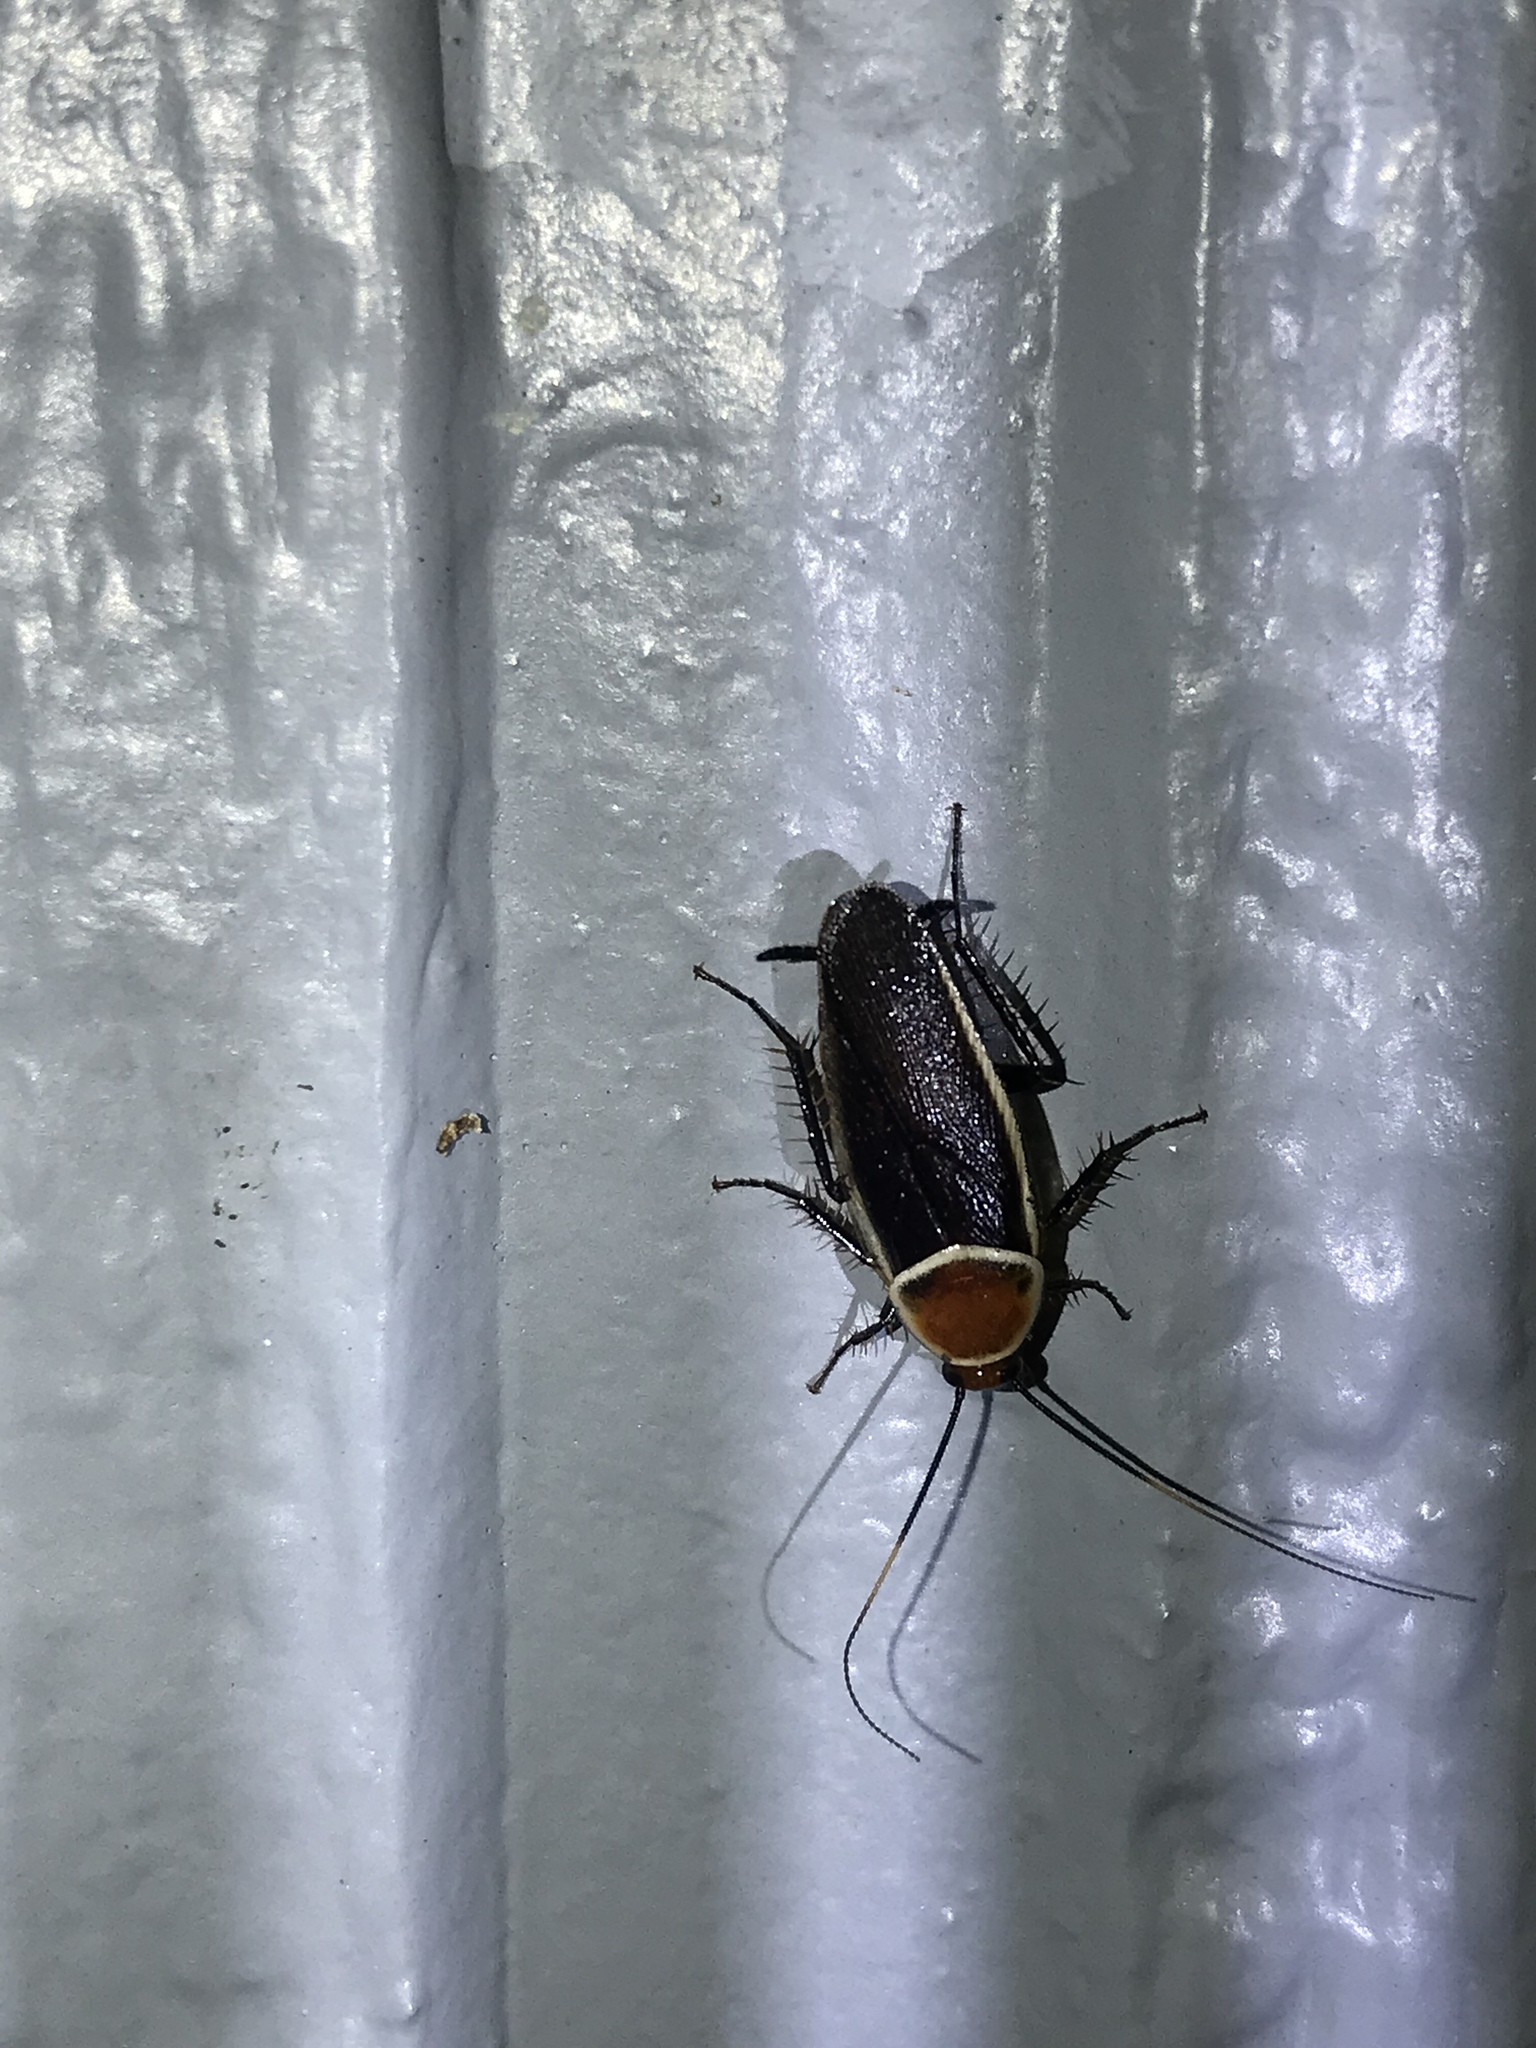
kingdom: Animalia
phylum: Arthropoda
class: Insecta
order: Blattodea
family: Ectobiidae
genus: Pseudomops
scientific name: Pseudomops septentrionalis
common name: Pale-bordered field cockroach
